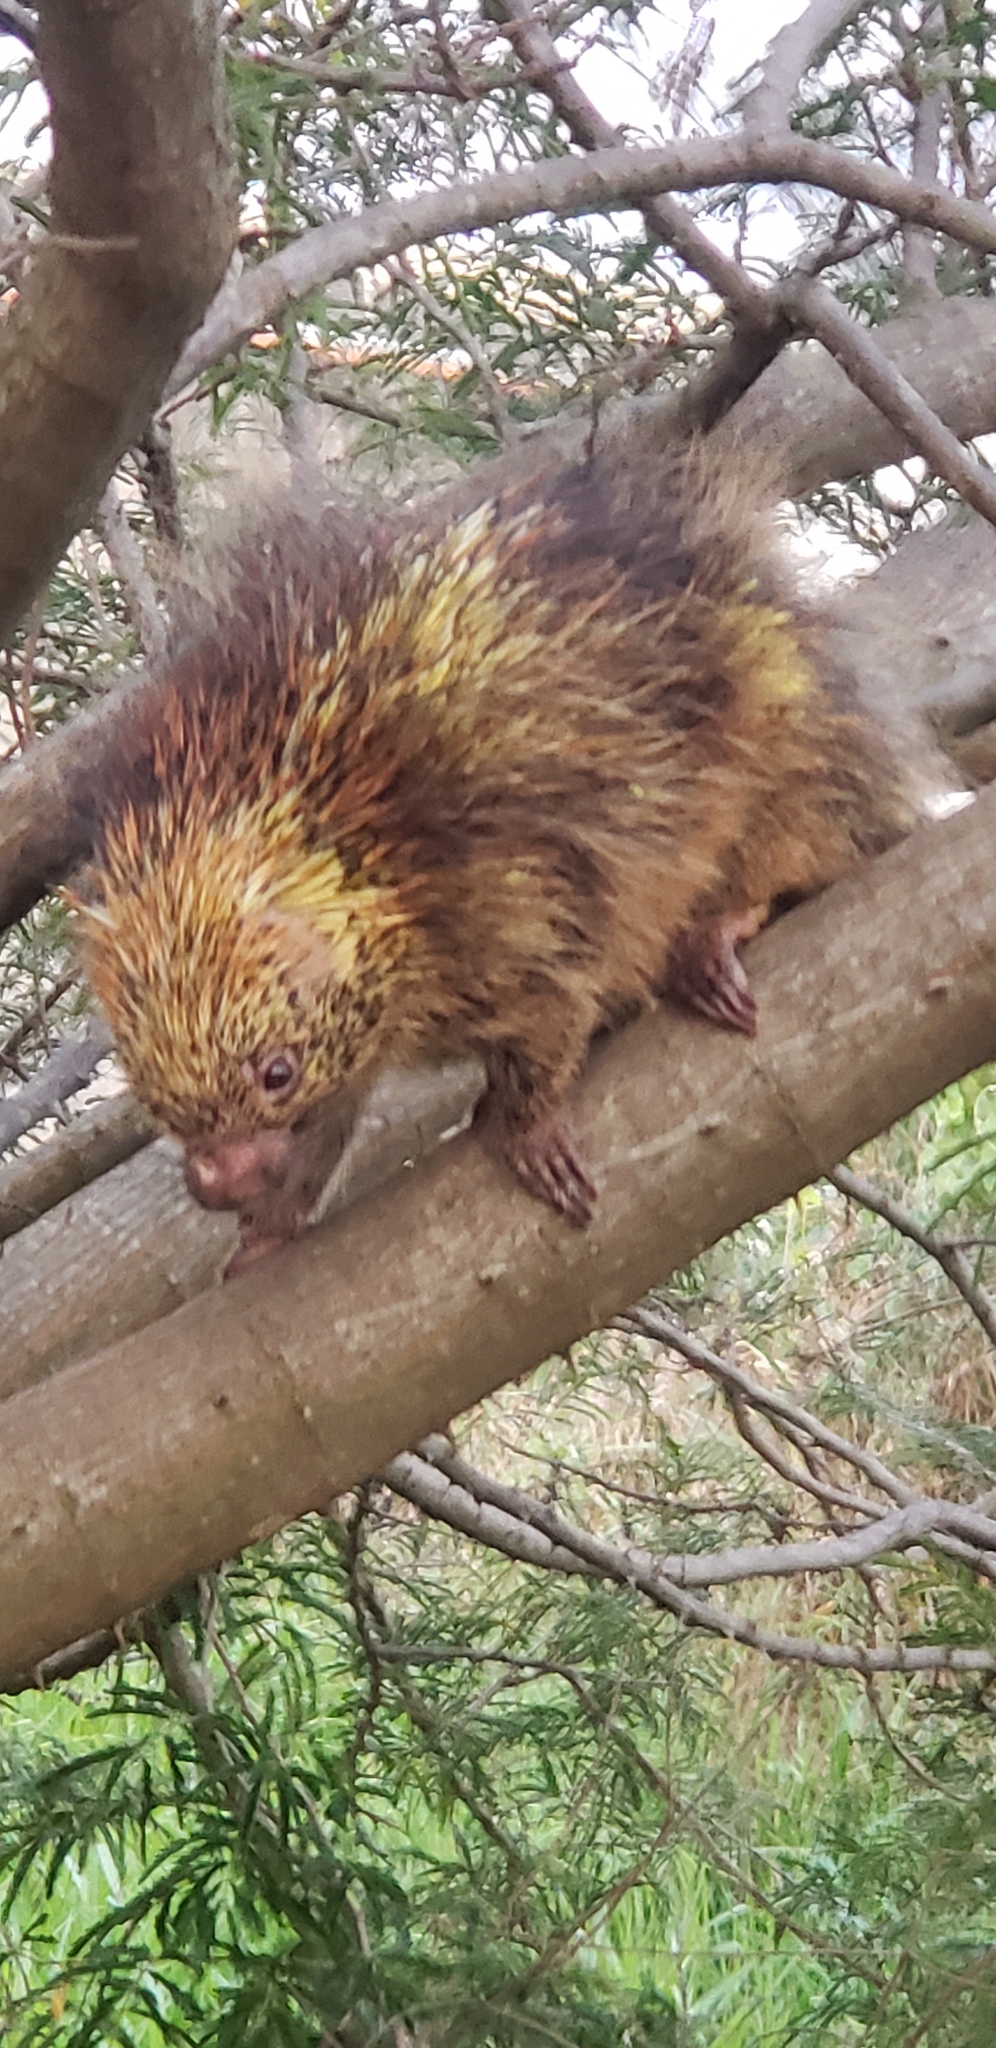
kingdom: Animalia
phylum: Chordata
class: Mammalia
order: Rodentia
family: Erethizontidae
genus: Sphiggurus
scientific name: Sphiggurus spinosus
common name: Paraguaian hairy dwarf porcupine
